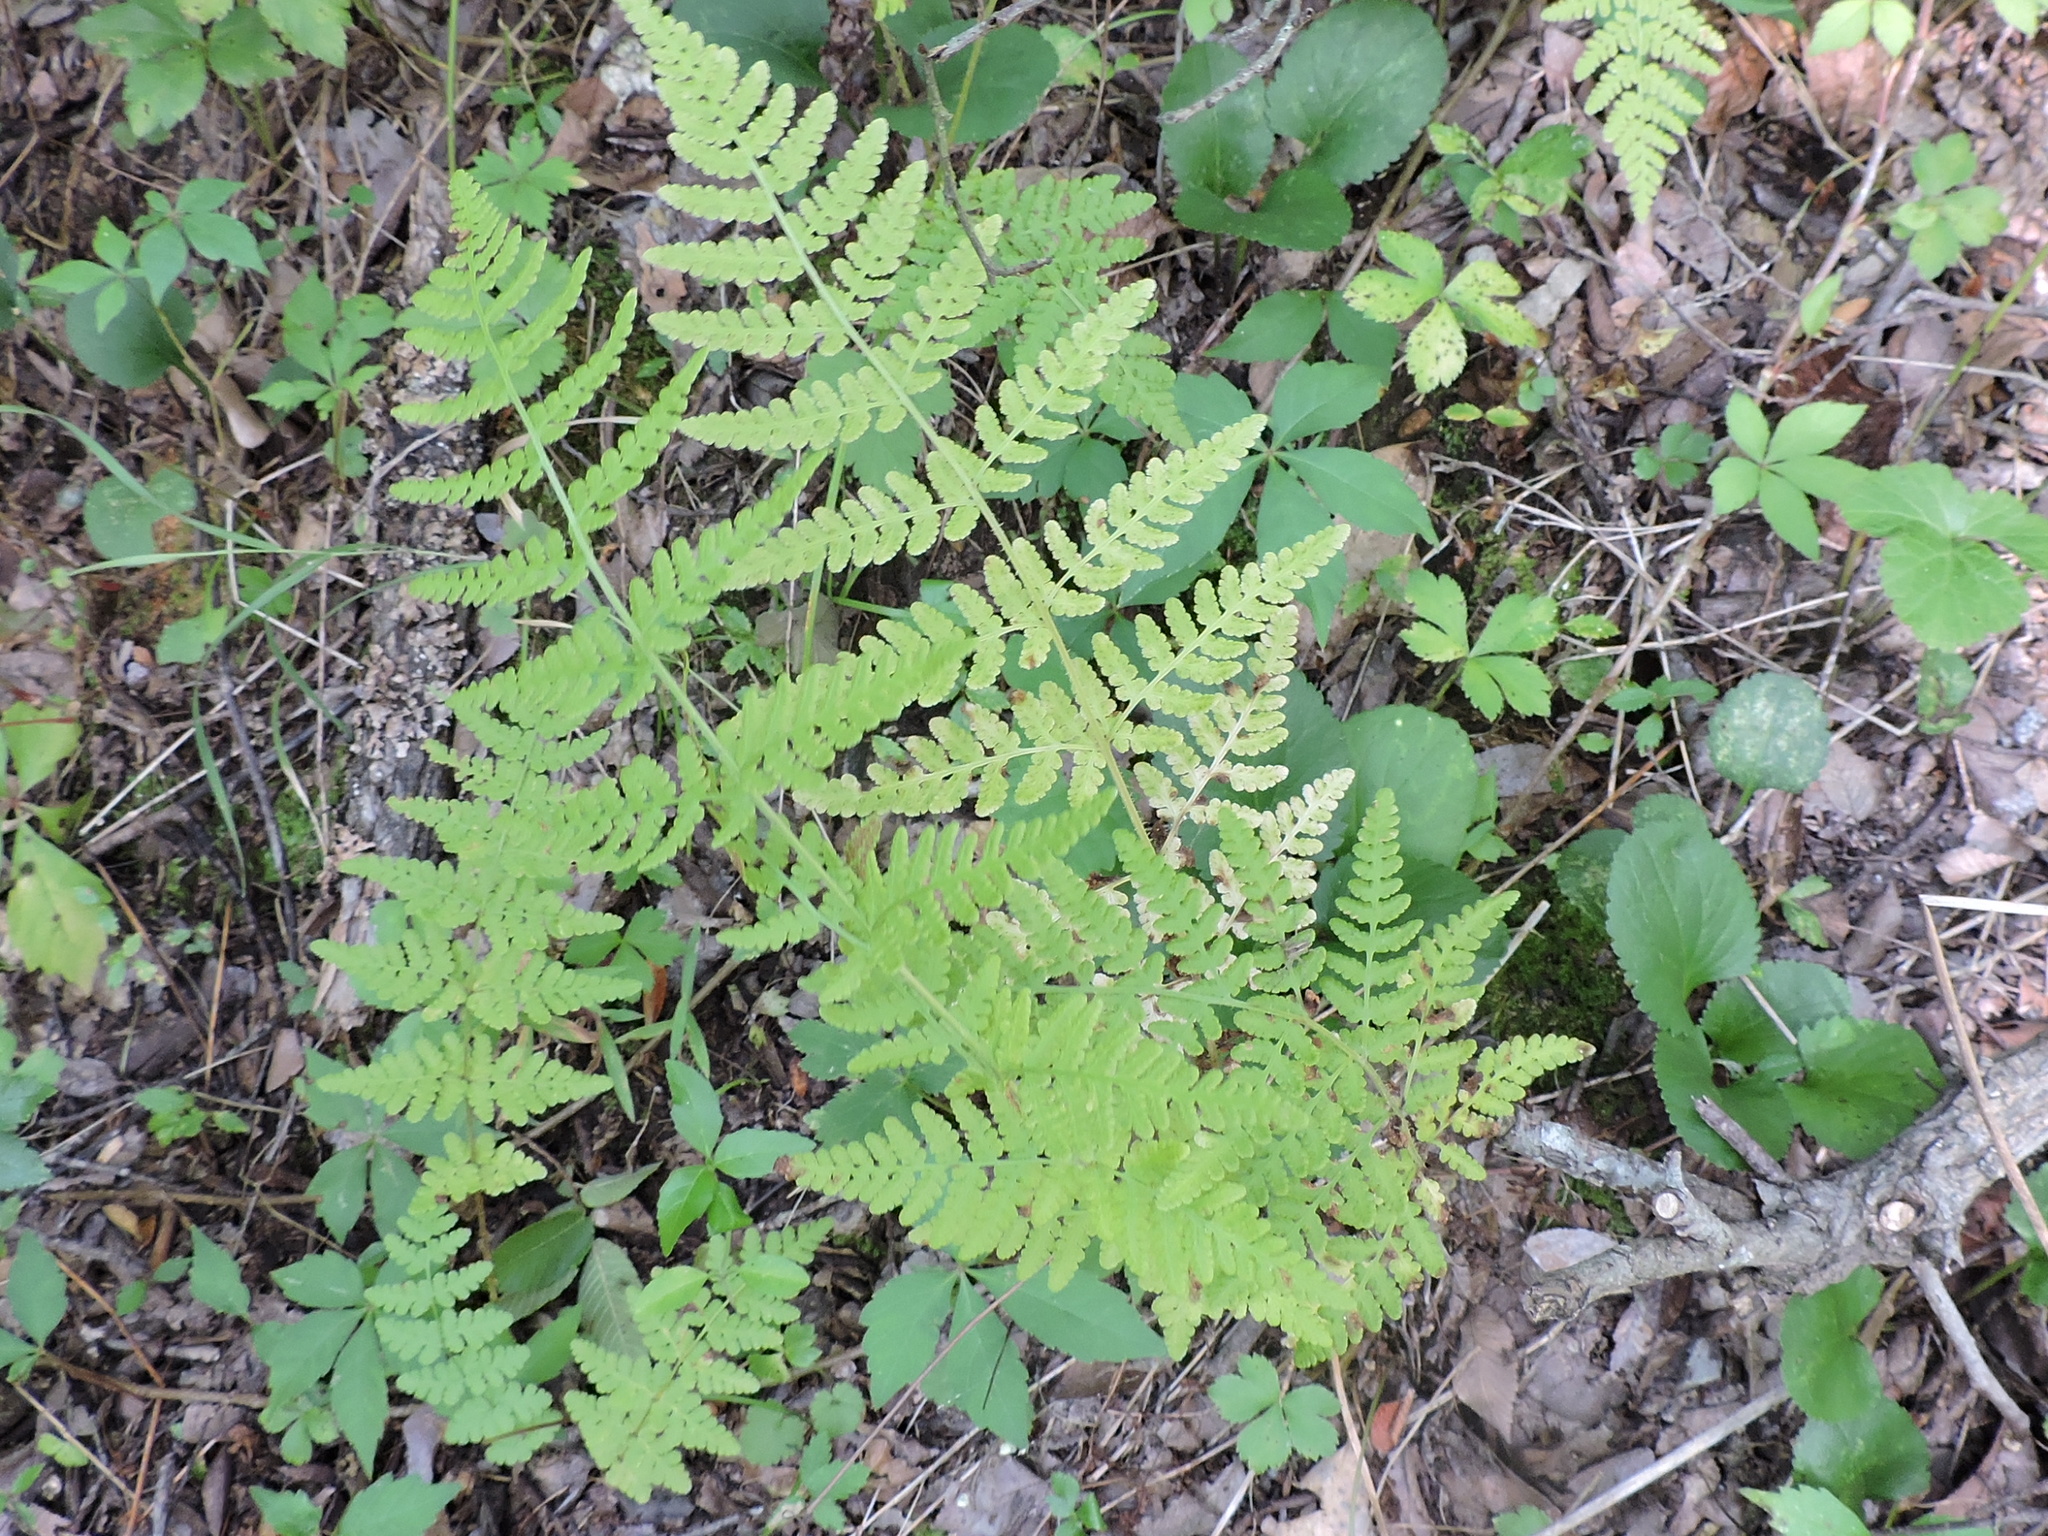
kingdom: Plantae
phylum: Tracheophyta
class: Polypodiopsida
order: Polypodiales
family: Woodsiaceae
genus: Physematium
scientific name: Physematium obtusum
